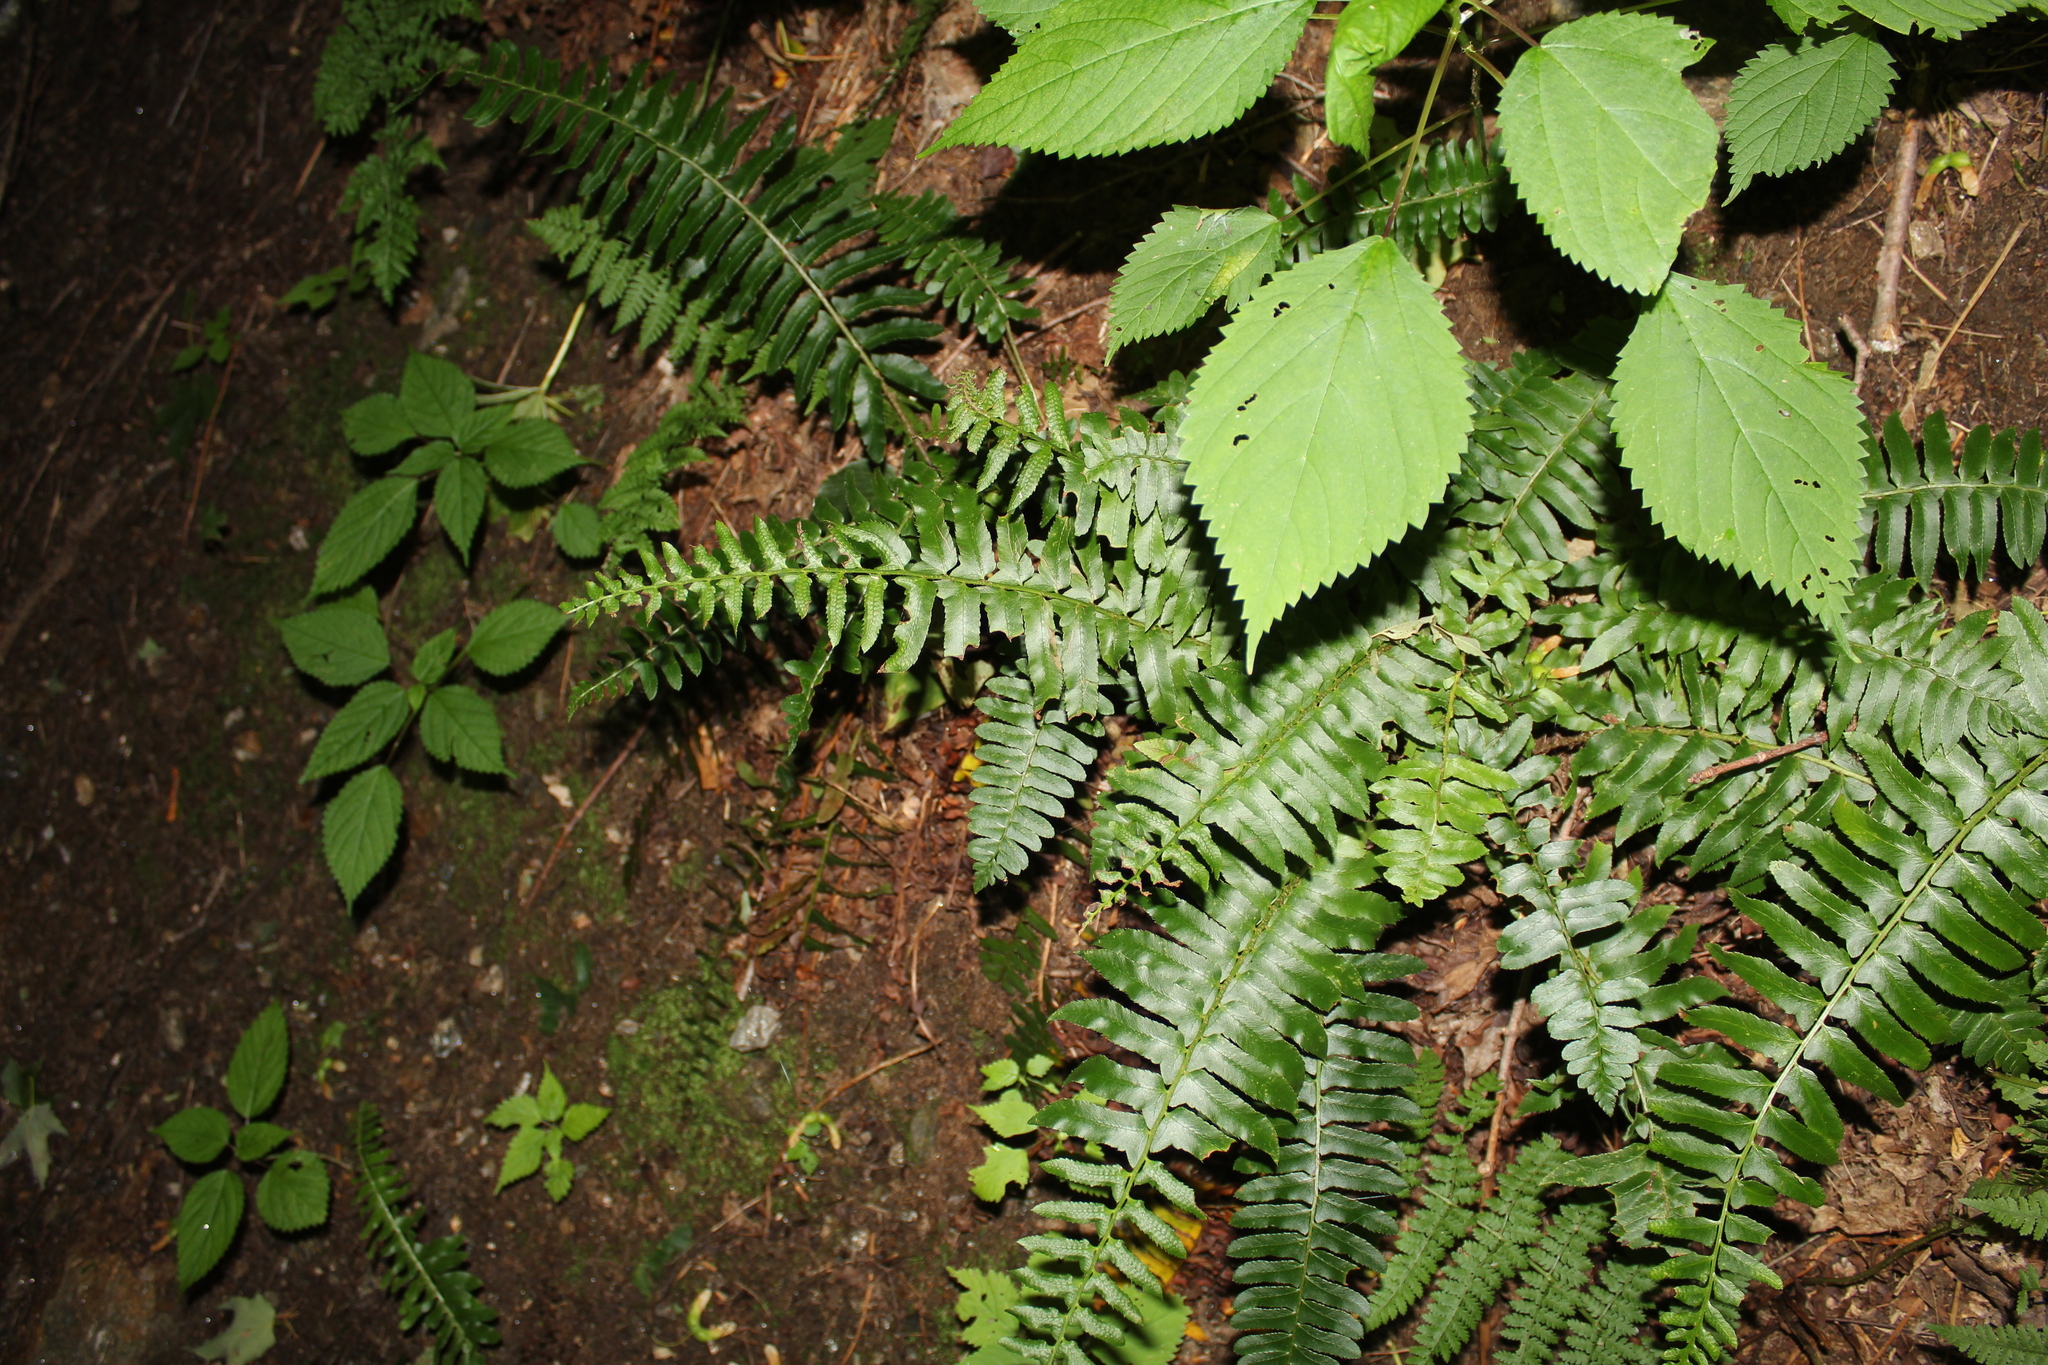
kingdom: Plantae
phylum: Tracheophyta
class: Polypodiopsida
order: Polypodiales
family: Dryopteridaceae
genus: Polystichum
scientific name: Polystichum acrostichoides
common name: Christmas fern
